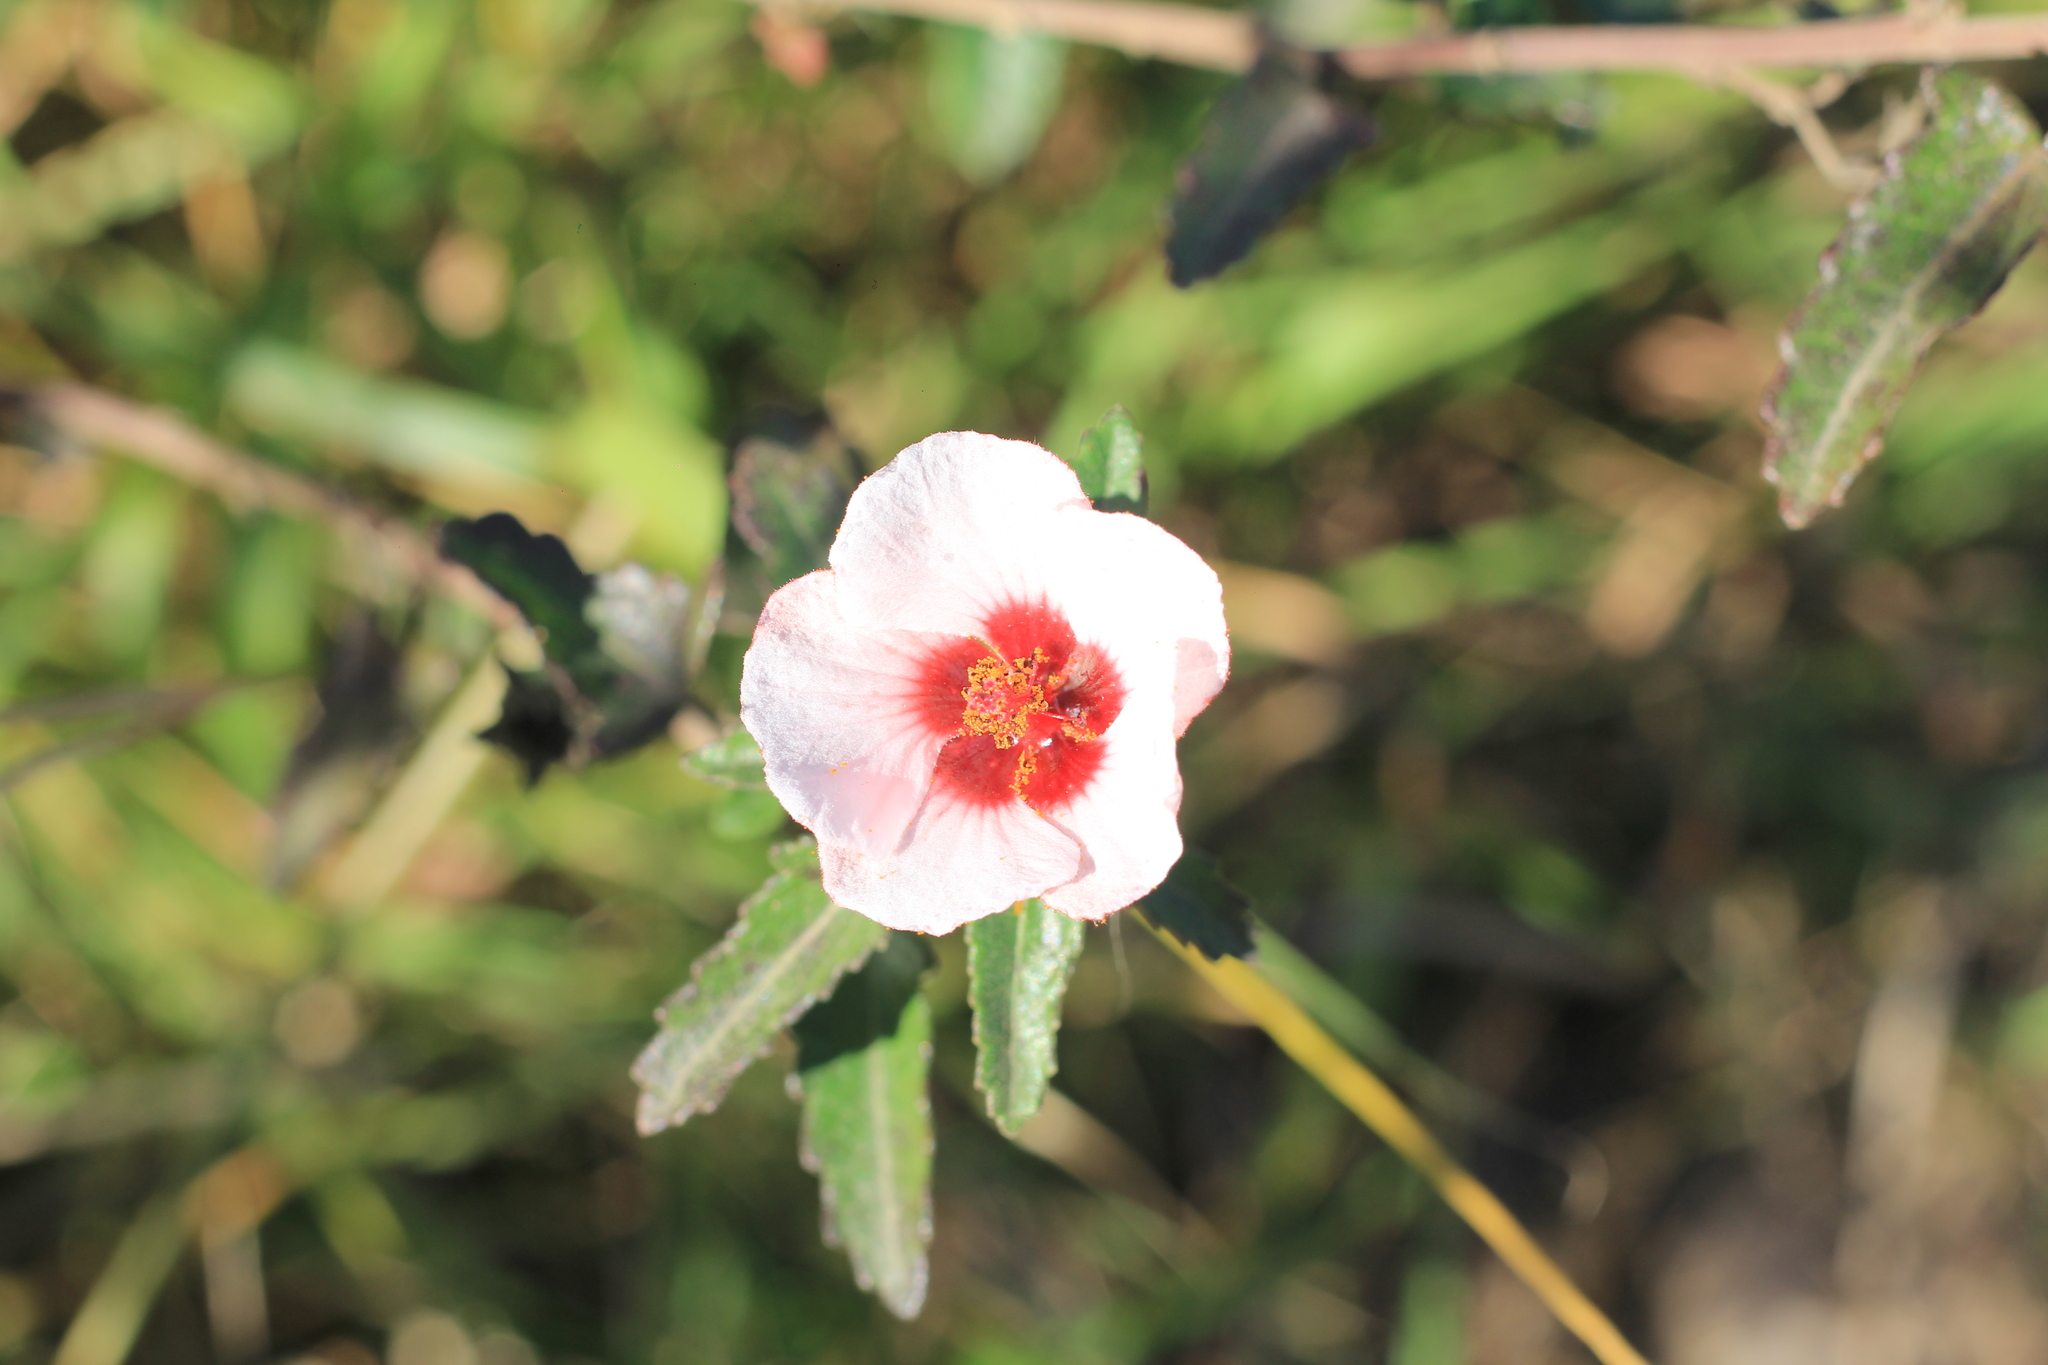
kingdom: Plantae
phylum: Tracheophyta
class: Magnoliopsida
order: Malvales
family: Malvaceae
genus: Pavonia
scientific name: Pavonia hastata
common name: Spearleaf swampmallow
